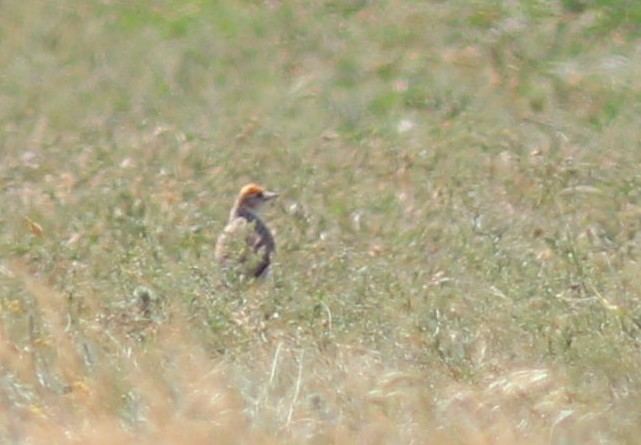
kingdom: Animalia
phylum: Chordata
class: Aves
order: Passeriformes
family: Alaudidae
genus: Melanocorypha
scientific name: Melanocorypha leucoptera
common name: White-winged lark
